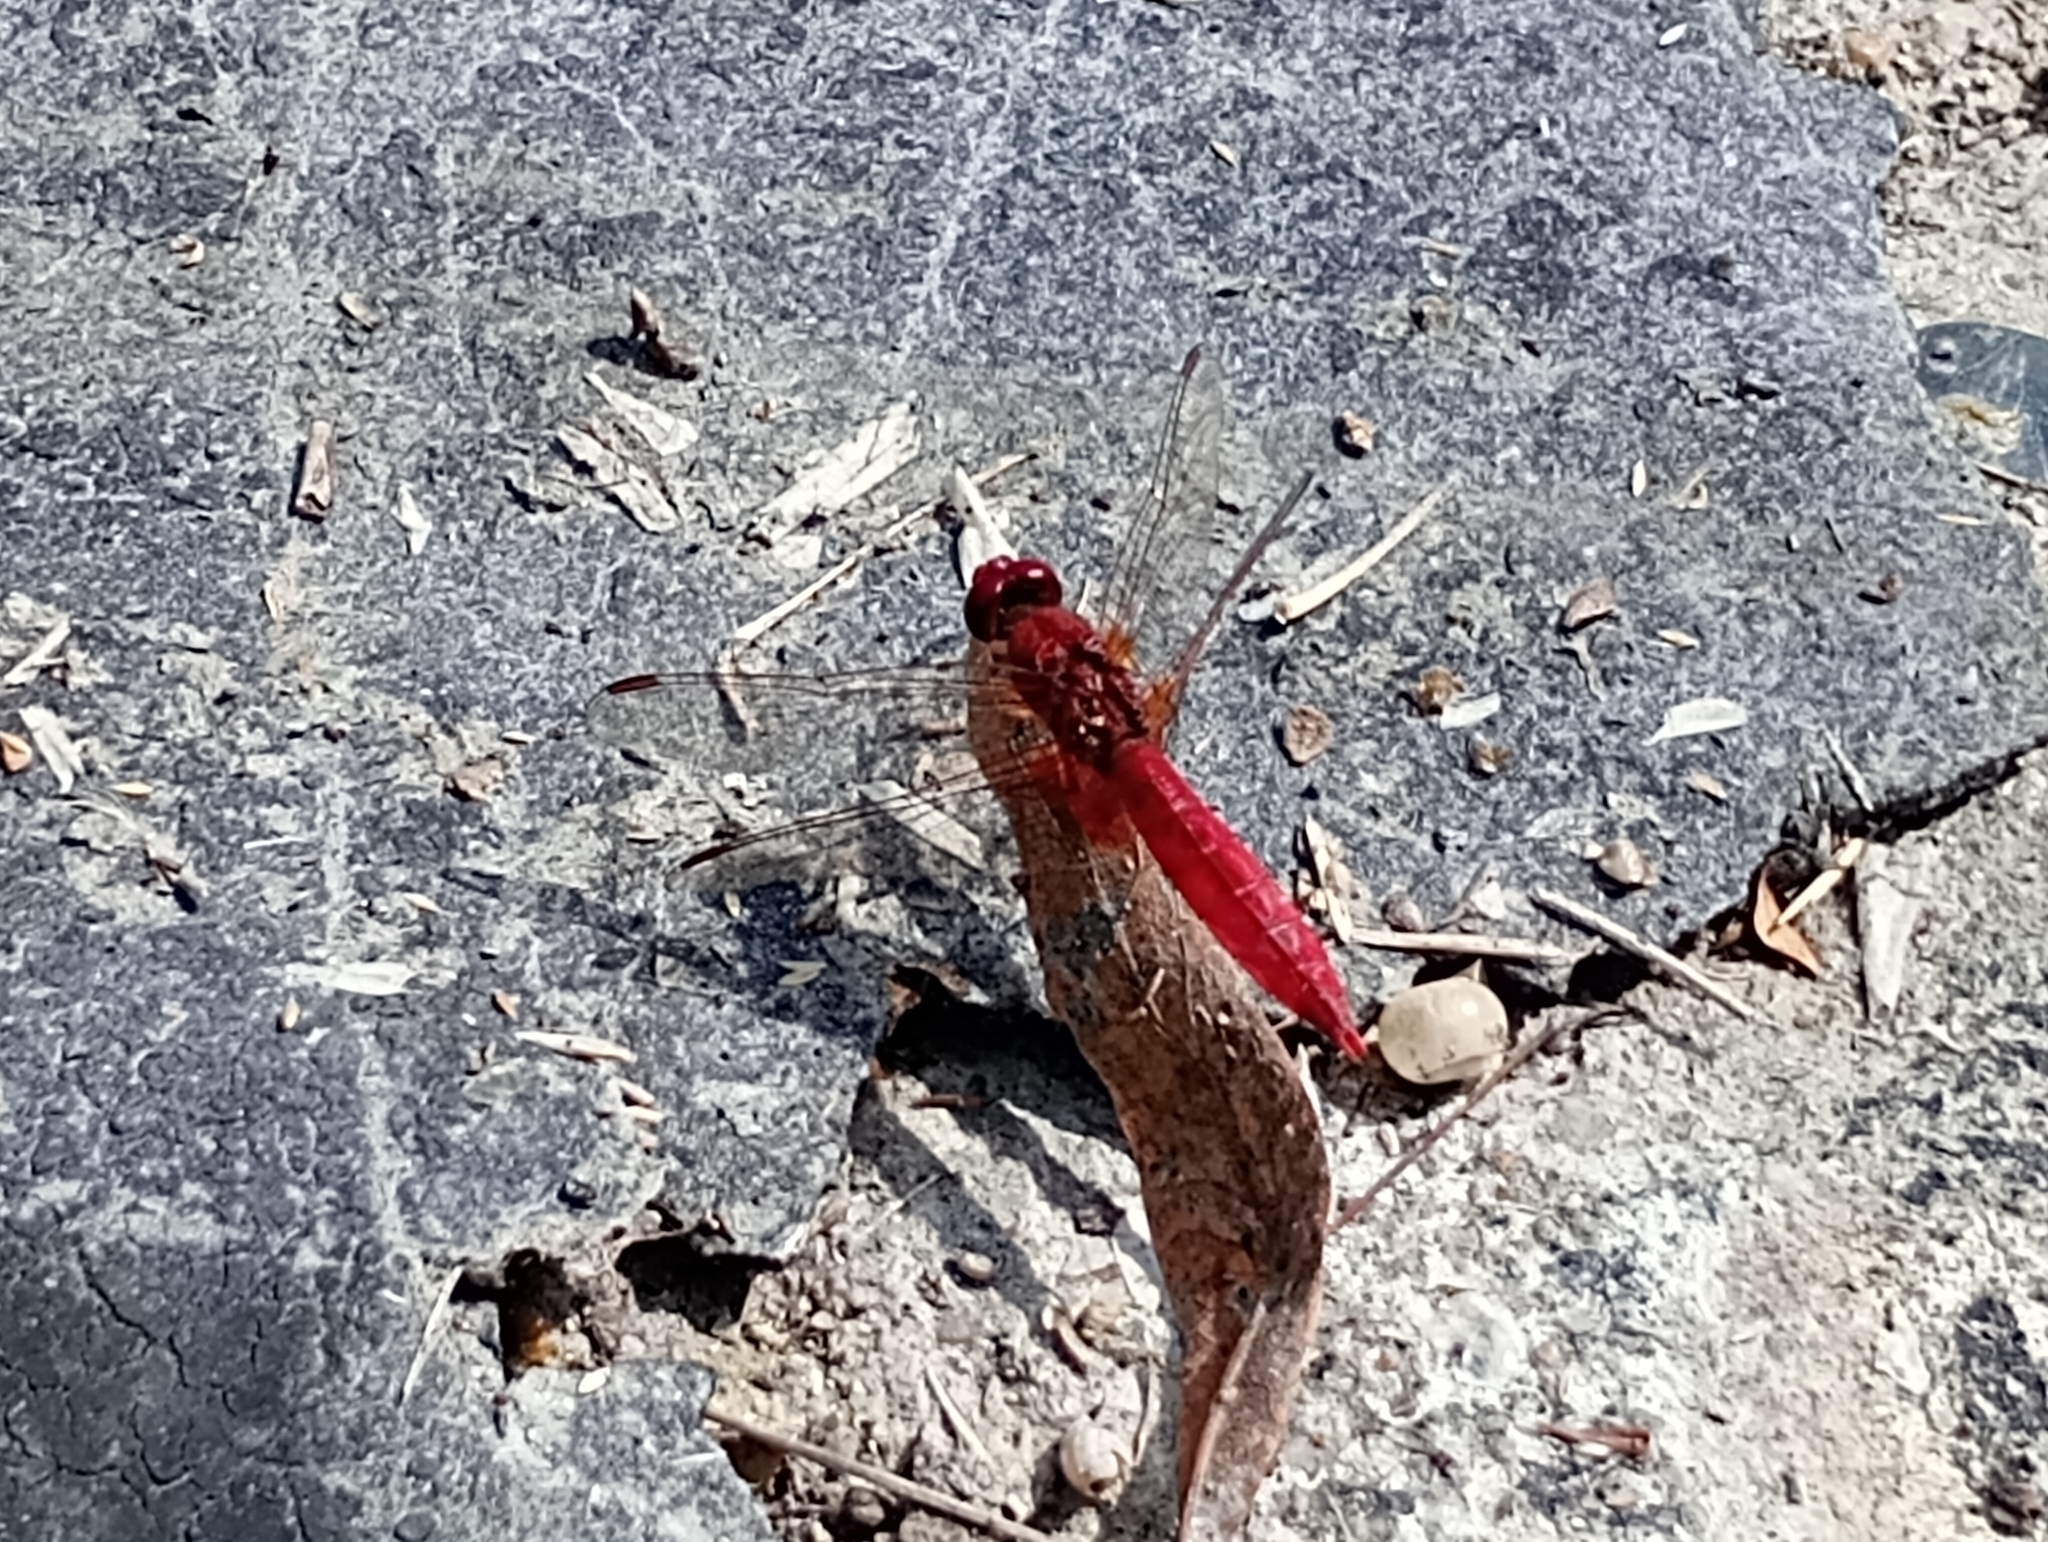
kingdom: Animalia
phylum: Arthropoda
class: Insecta
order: Odonata
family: Libellulidae
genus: Crocothemis
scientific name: Crocothemis erythraea
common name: Scarlet dragonfly
